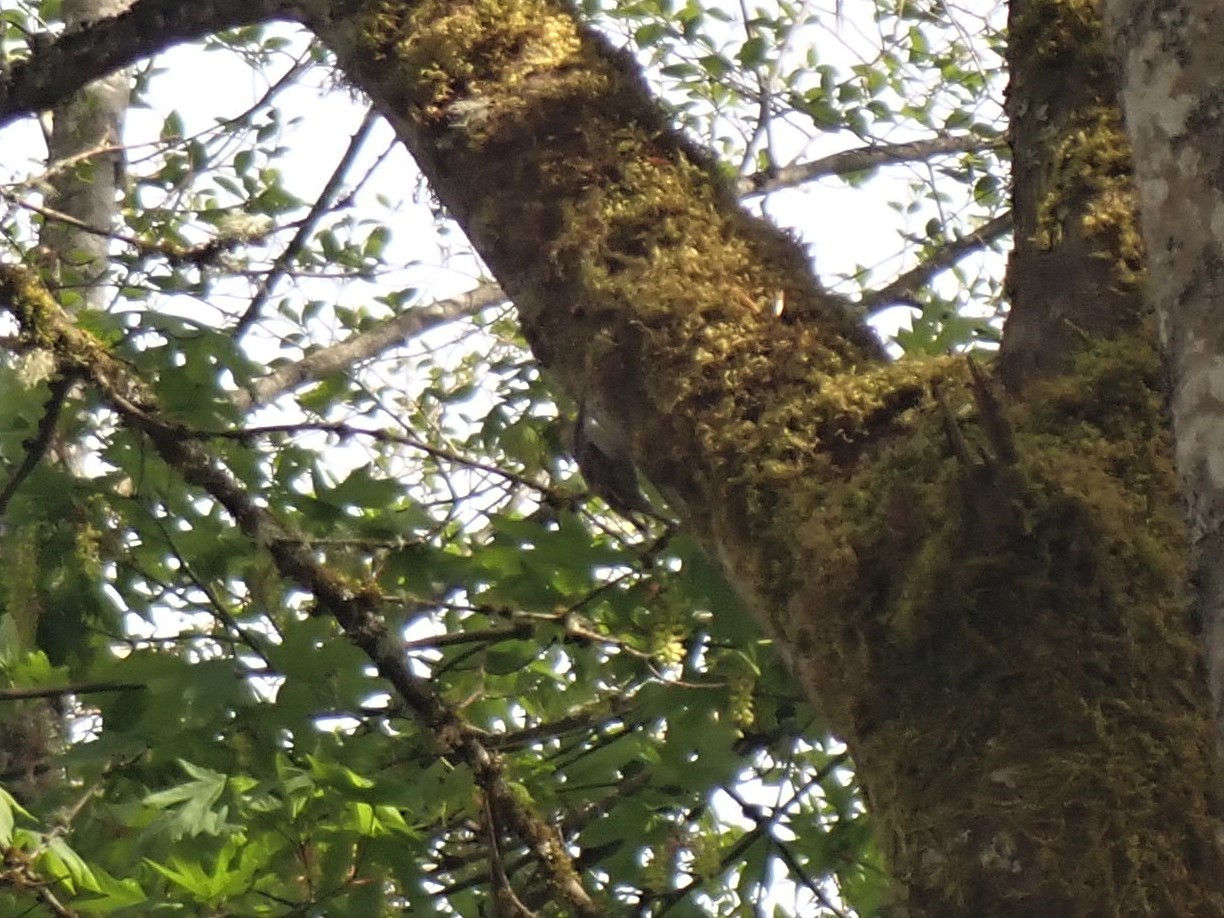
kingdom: Animalia
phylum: Chordata
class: Aves
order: Passeriformes
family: Certhiidae
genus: Certhia
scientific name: Certhia americana
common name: Brown creeper
